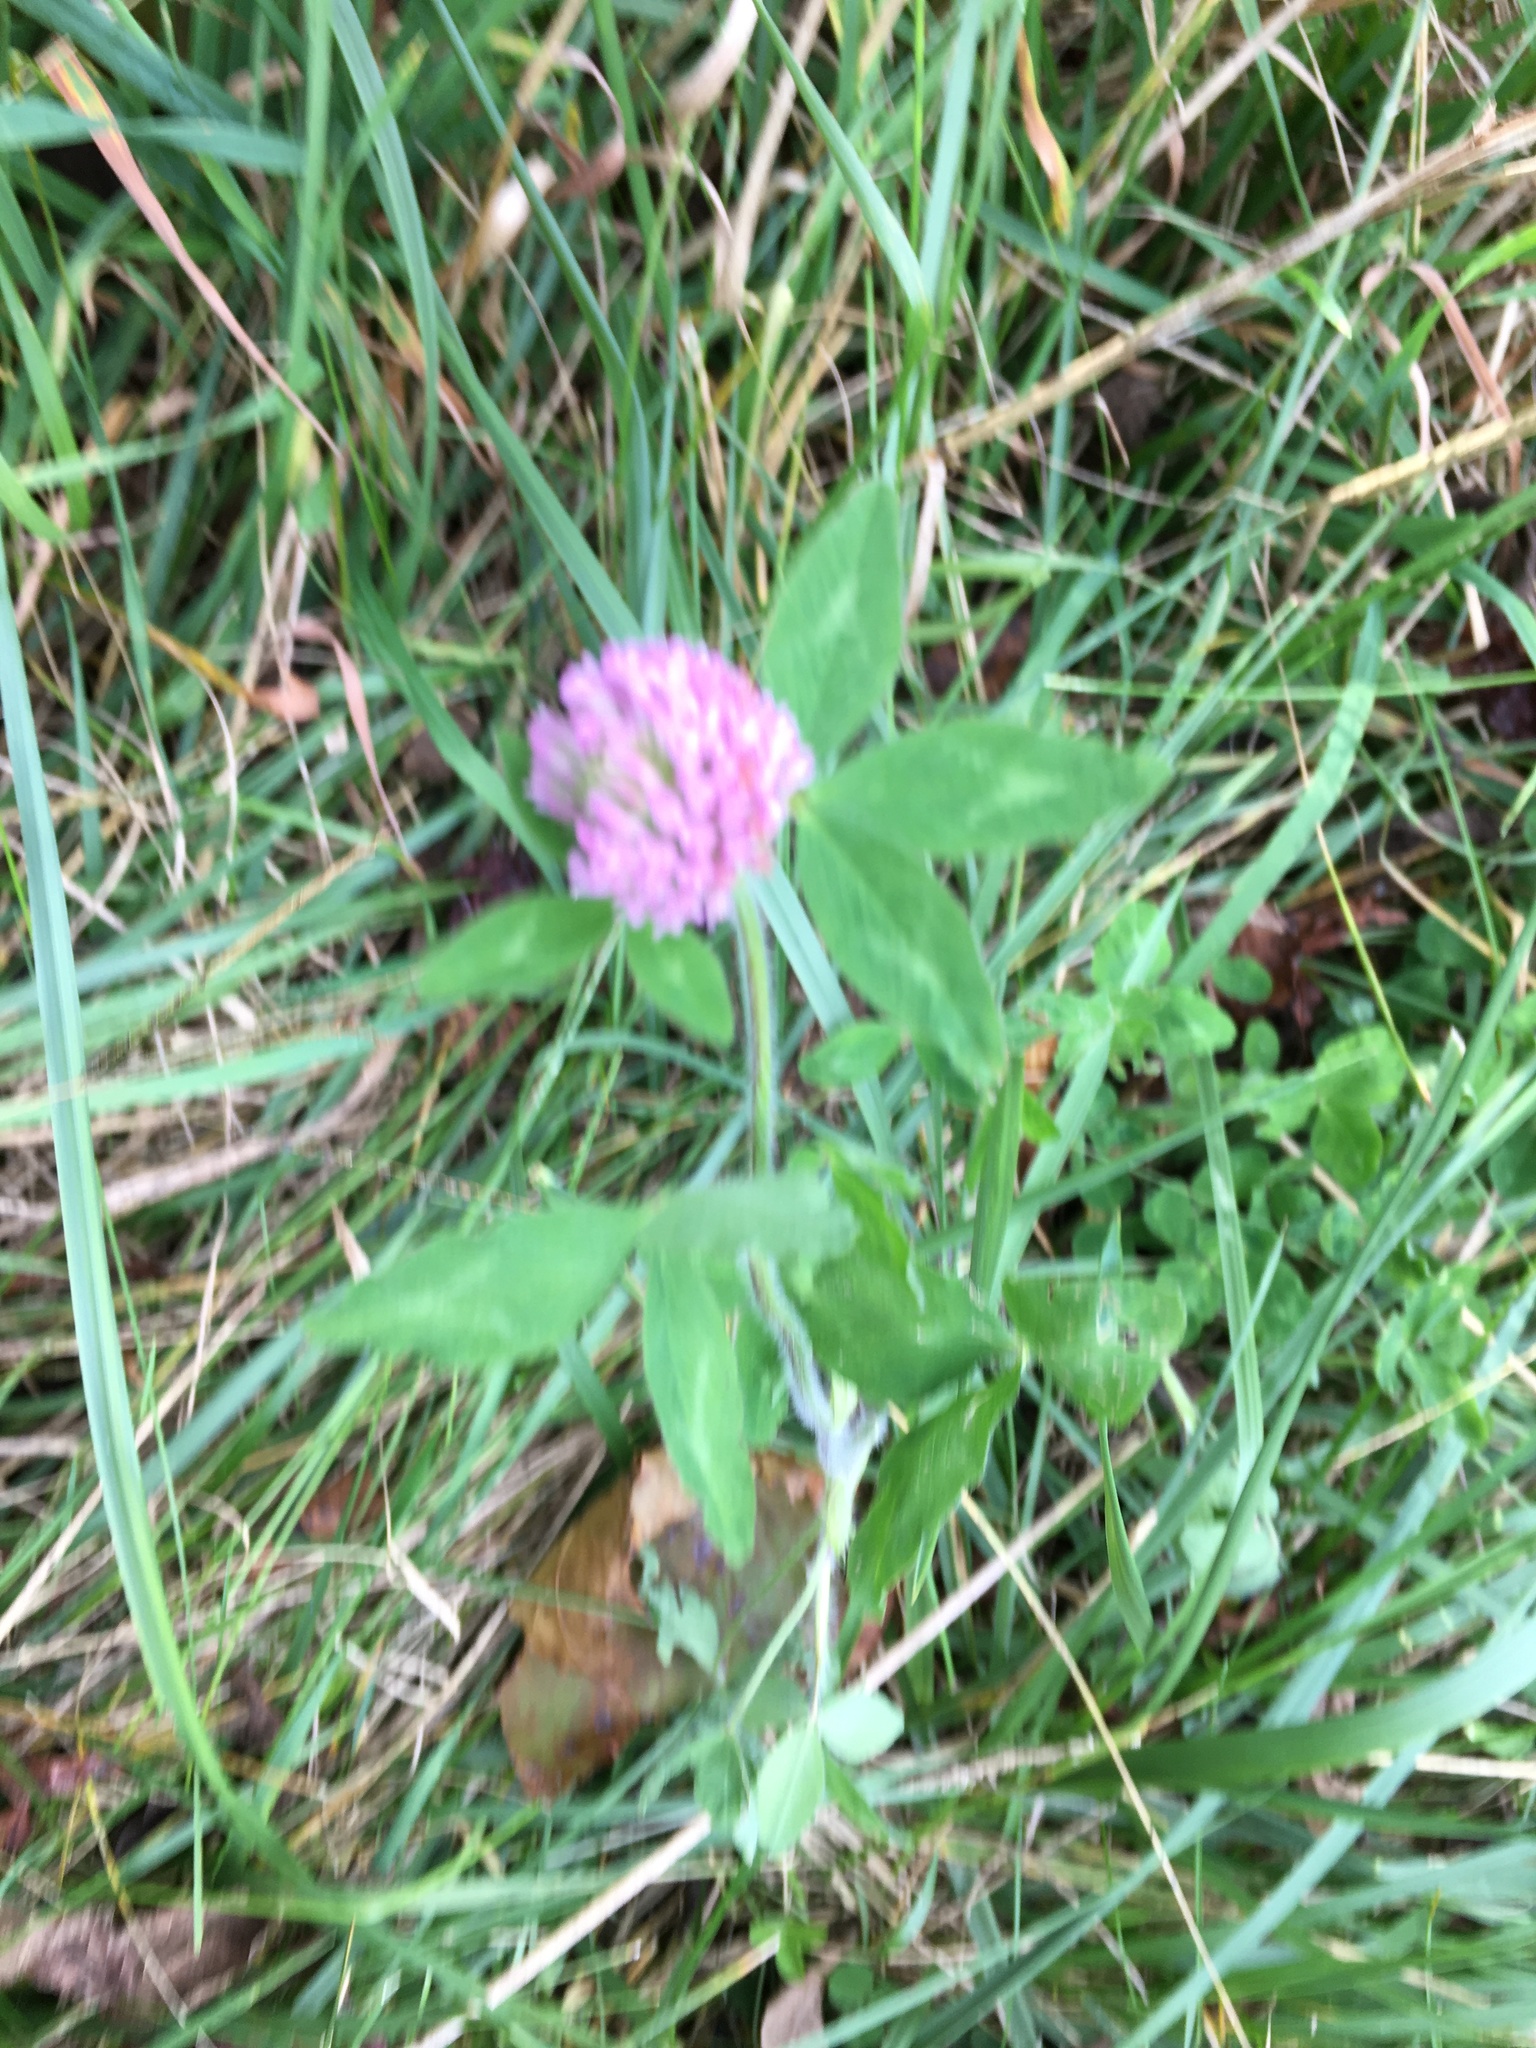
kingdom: Plantae
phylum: Tracheophyta
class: Magnoliopsida
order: Fabales
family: Fabaceae
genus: Trifolium
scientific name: Trifolium pratense
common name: Red clover
